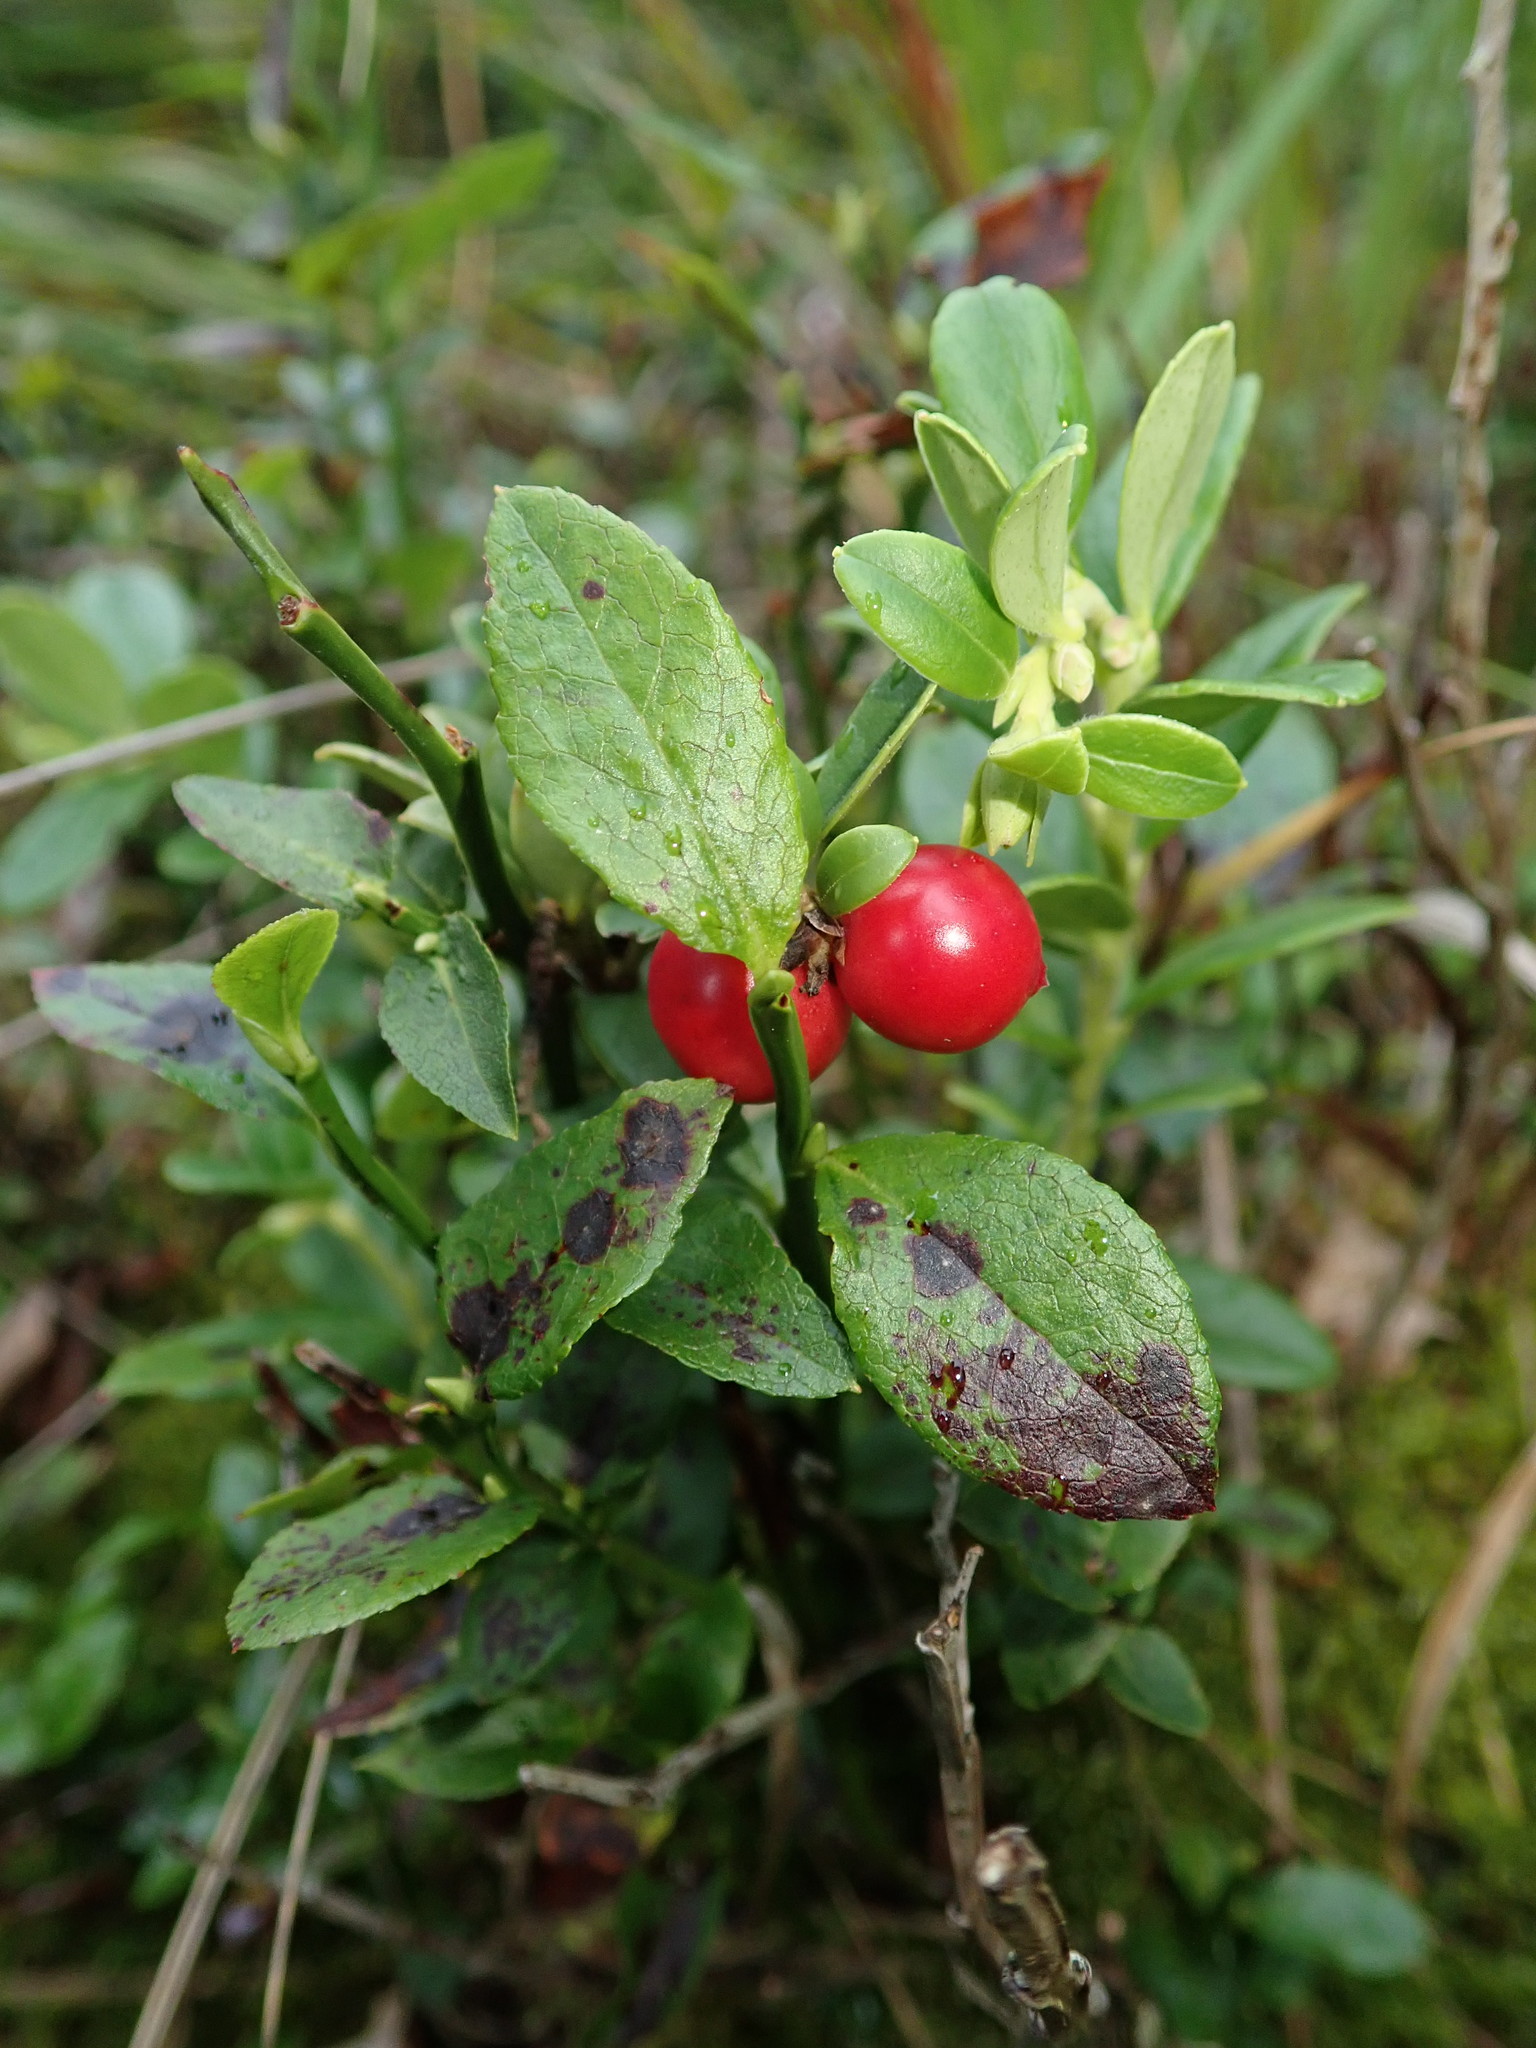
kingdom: Plantae
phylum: Tracheophyta
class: Magnoliopsida
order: Ericales
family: Ericaceae
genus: Vaccinium
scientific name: Vaccinium vitis-idaea
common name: Cowberry
